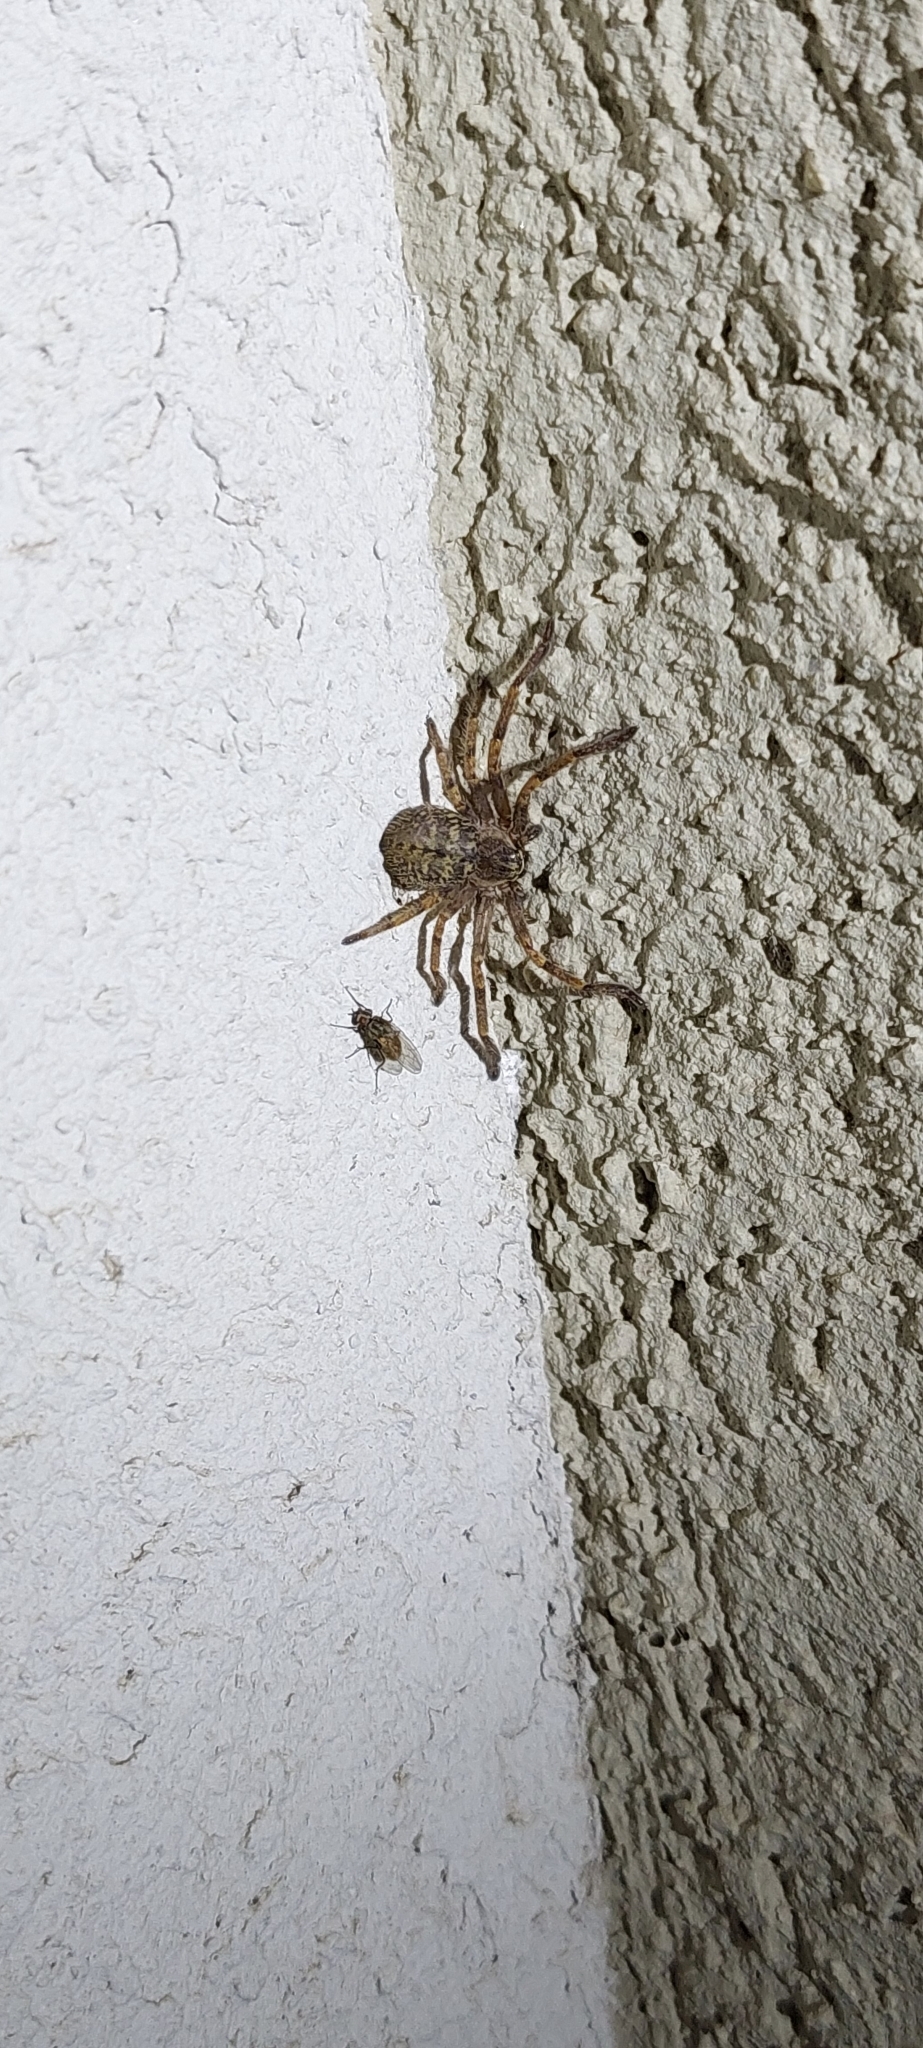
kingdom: Animalia
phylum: Arthropoda
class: Arachnida
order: Araneae
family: Sparassidae
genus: Polybetes
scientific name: Polybetes pythagoricus
